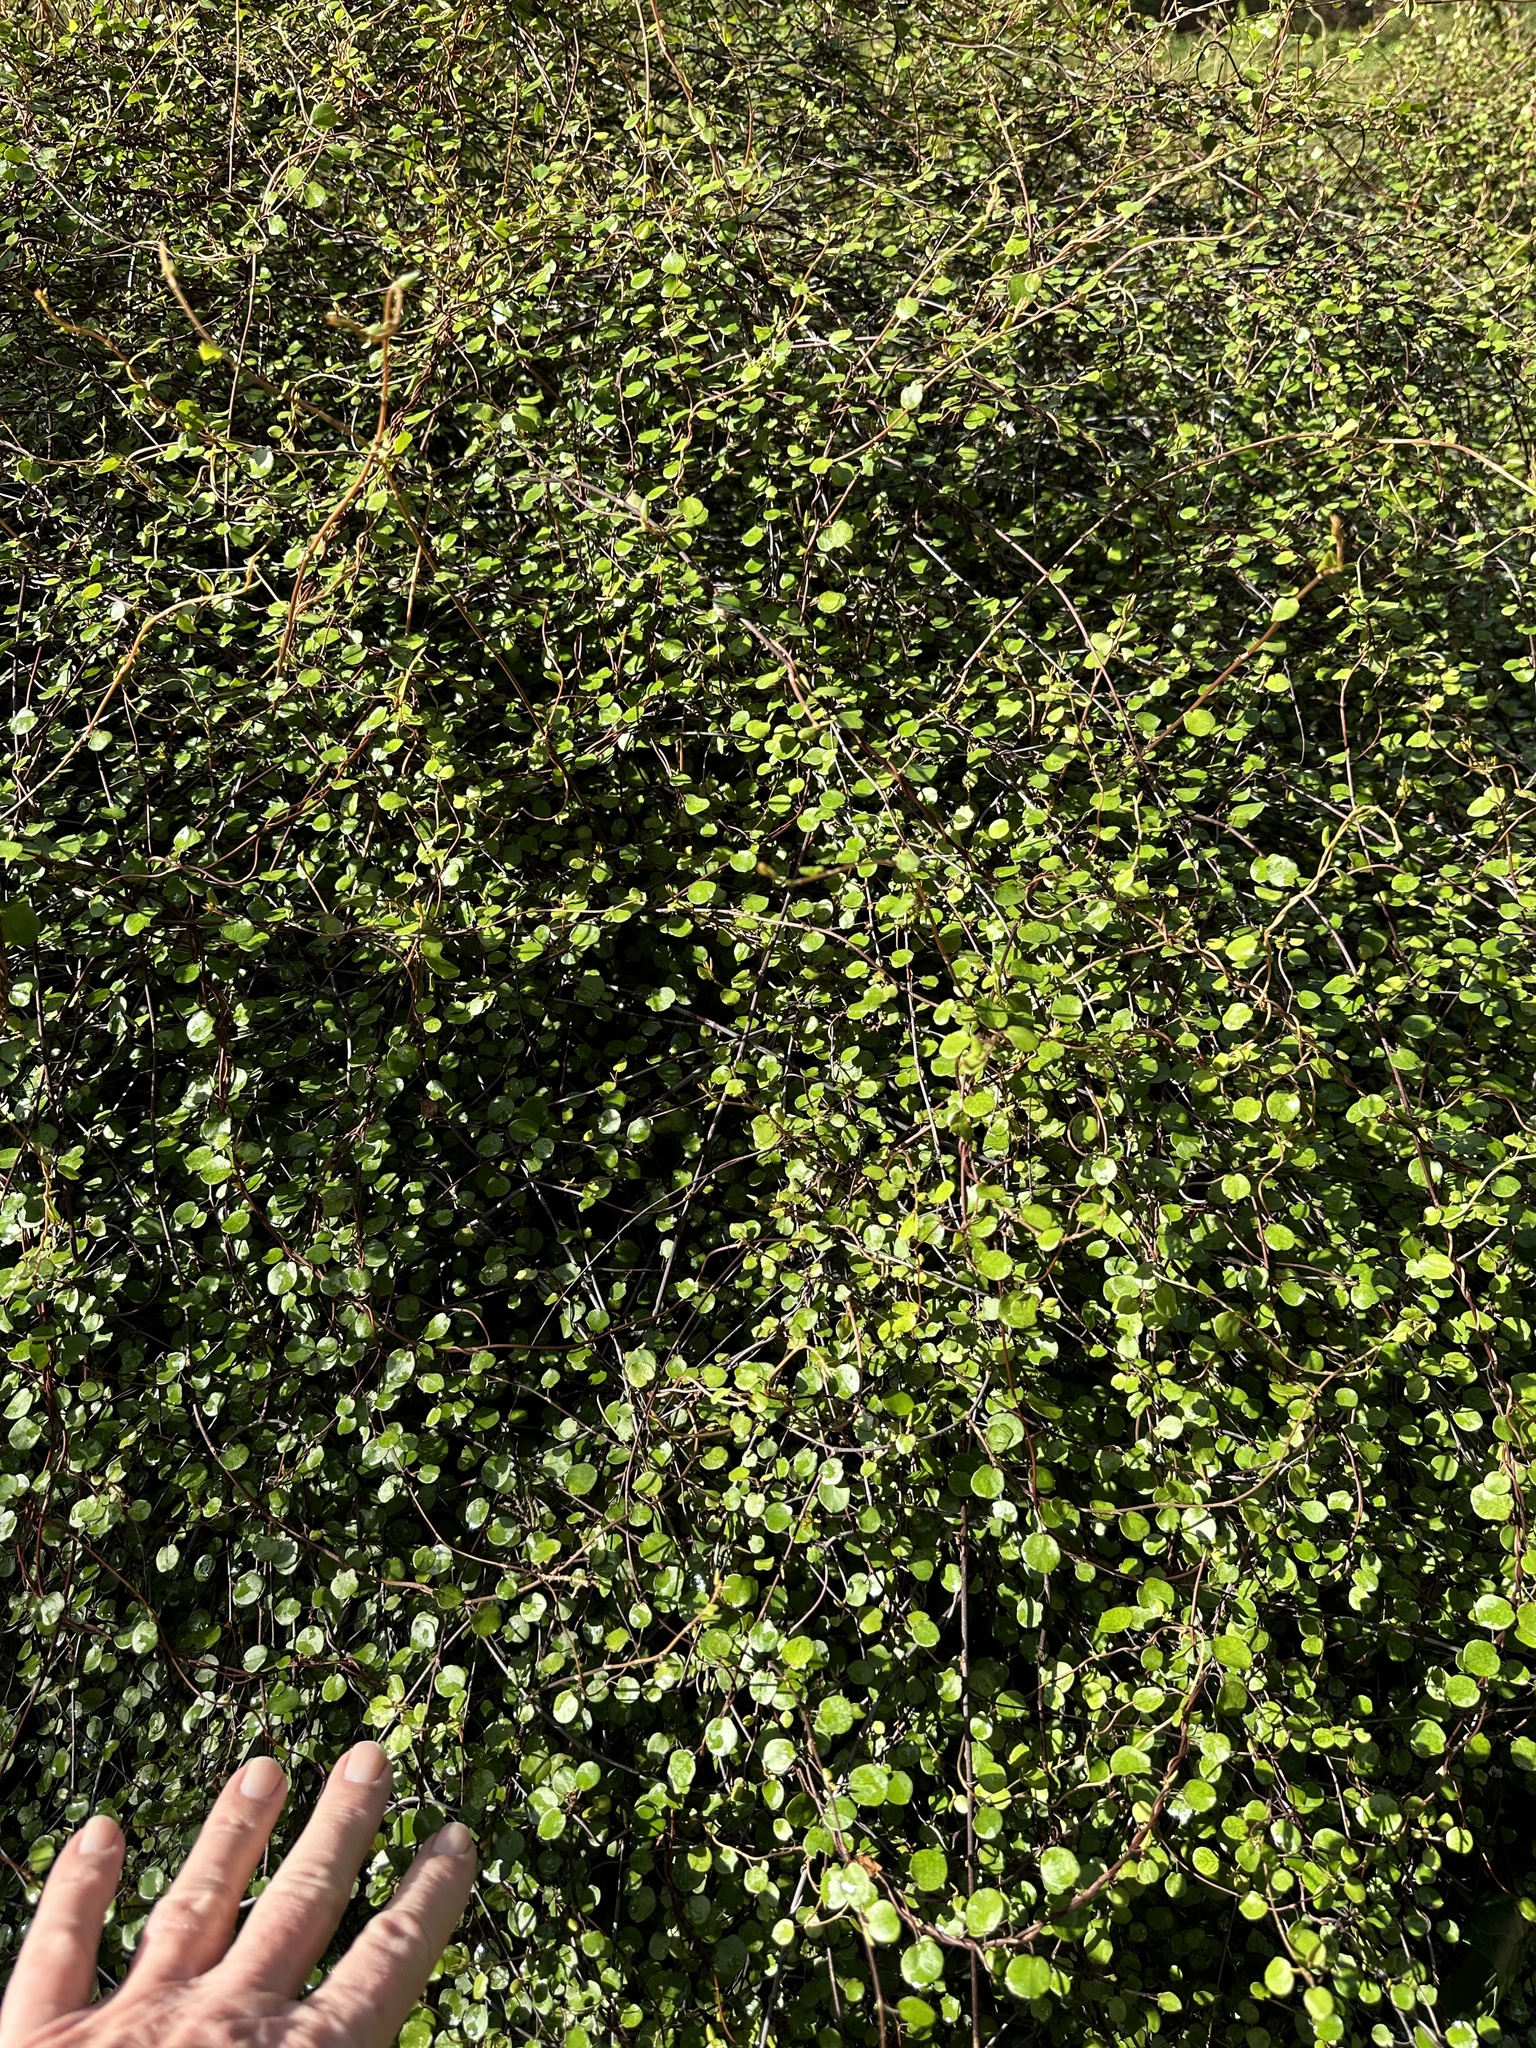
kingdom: Plantae
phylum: Tracheophyta
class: Magnoliopsida
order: Caryophyllales
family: Polygonaceae
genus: Muehlenbeckia
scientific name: Muehlenbeckia complexa
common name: Wireplant
